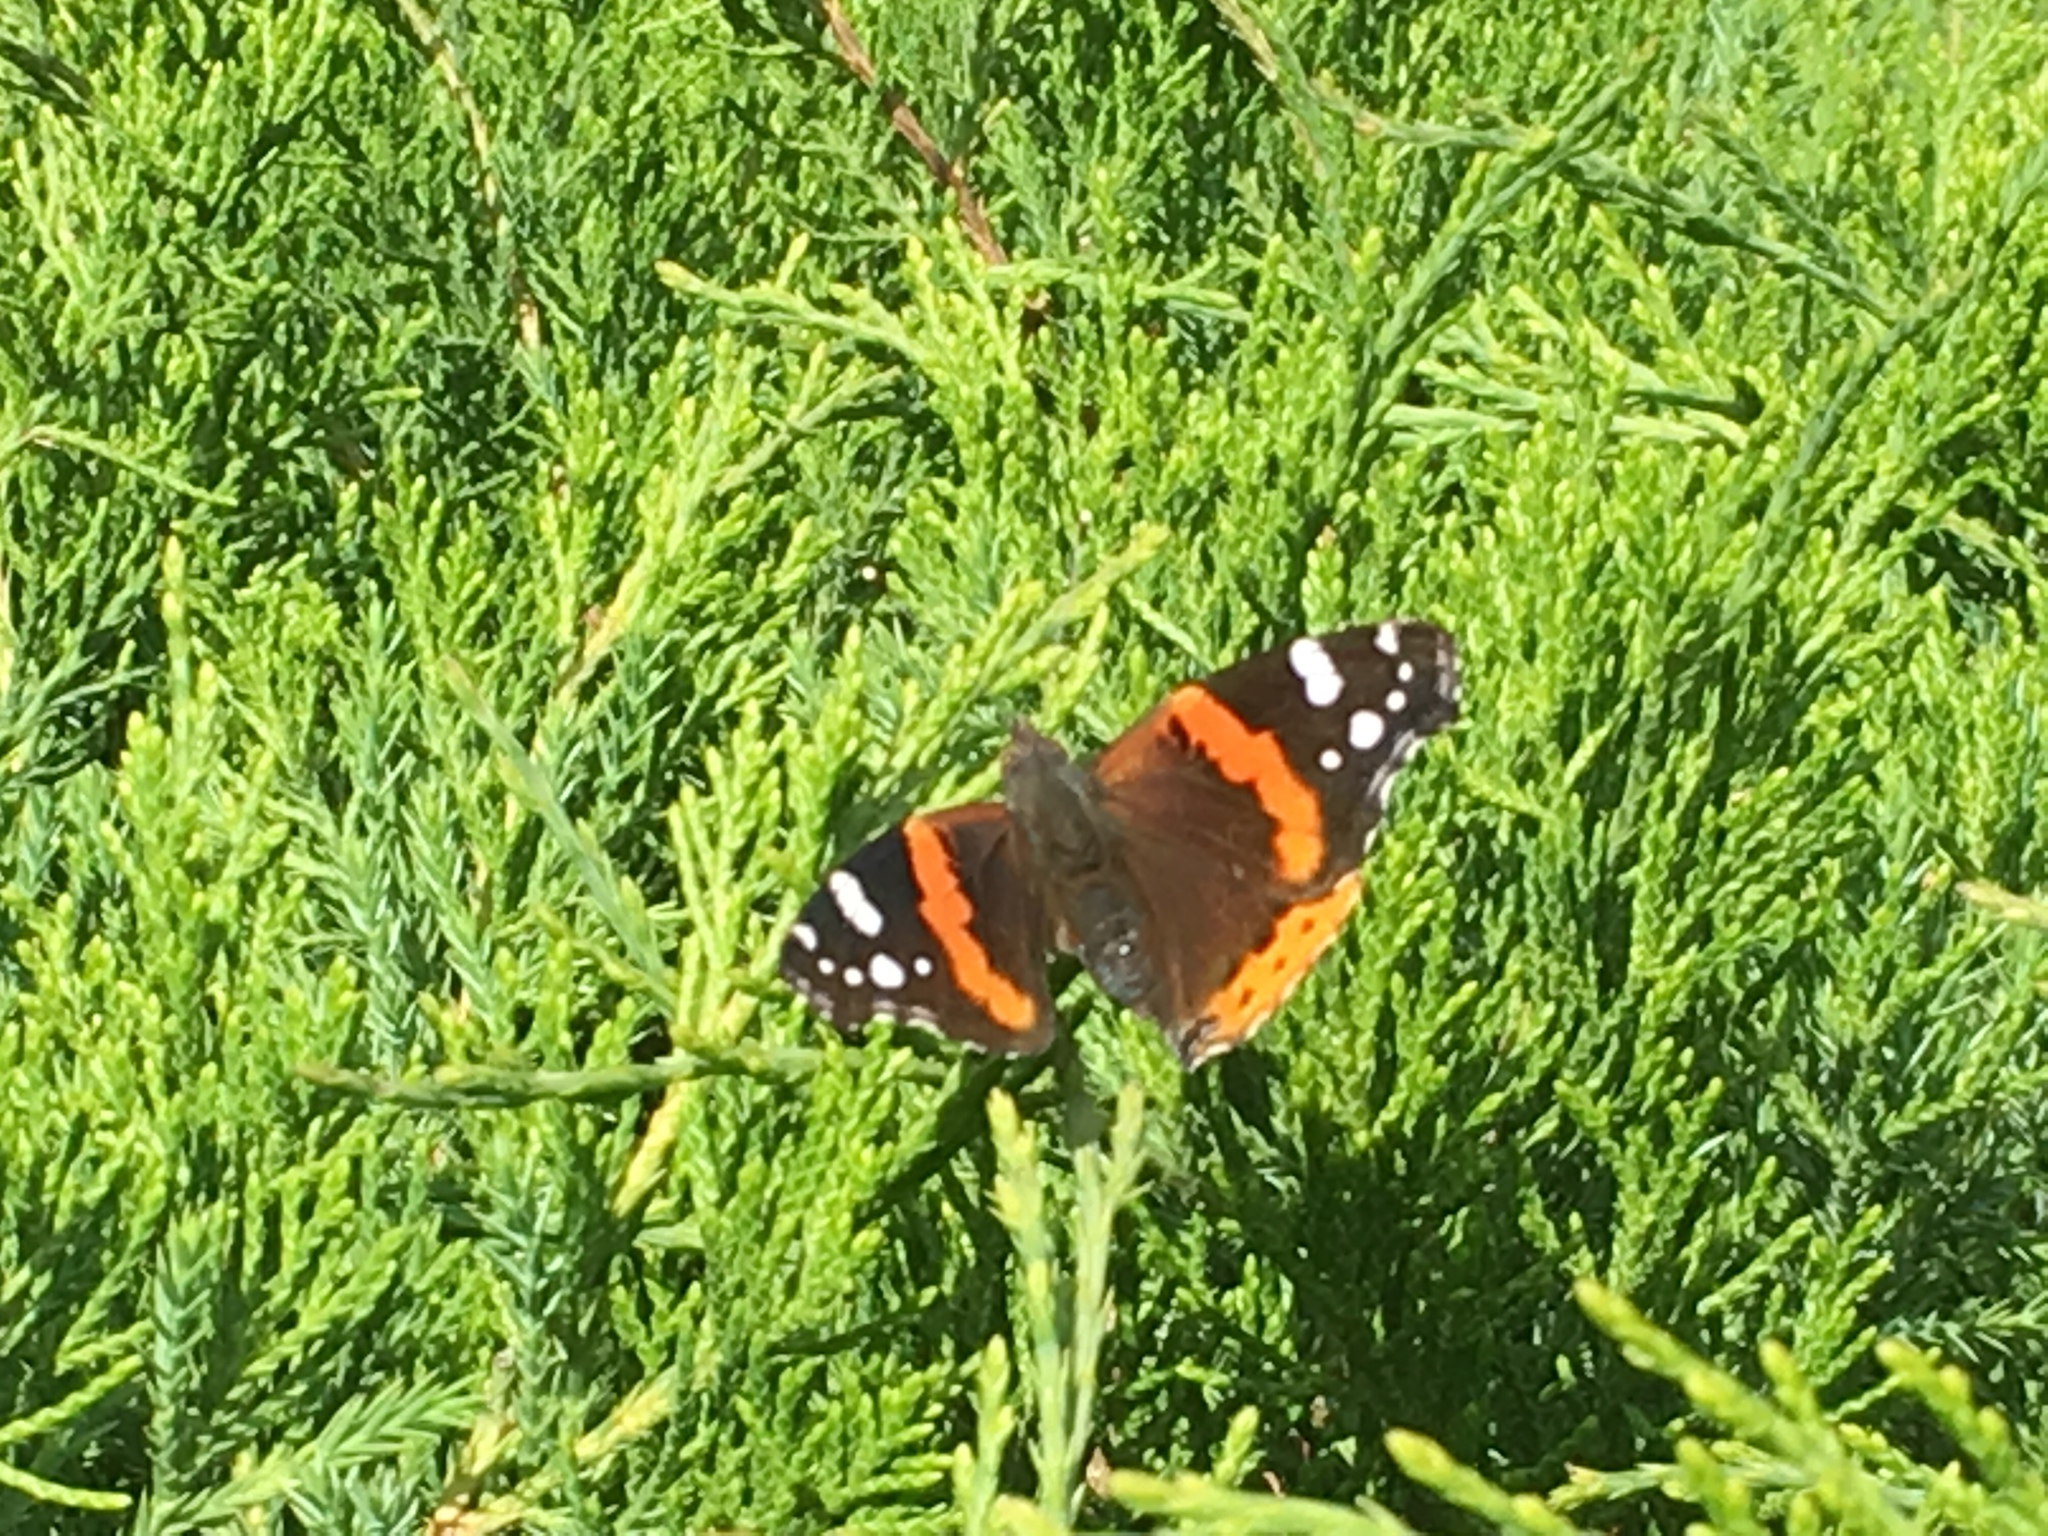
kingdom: Animalia
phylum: Arthropoda
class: Insecta
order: Lepidoptera
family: Nymphalidae
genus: Vanessa
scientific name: Vanessa atalanta
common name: Red admiral
